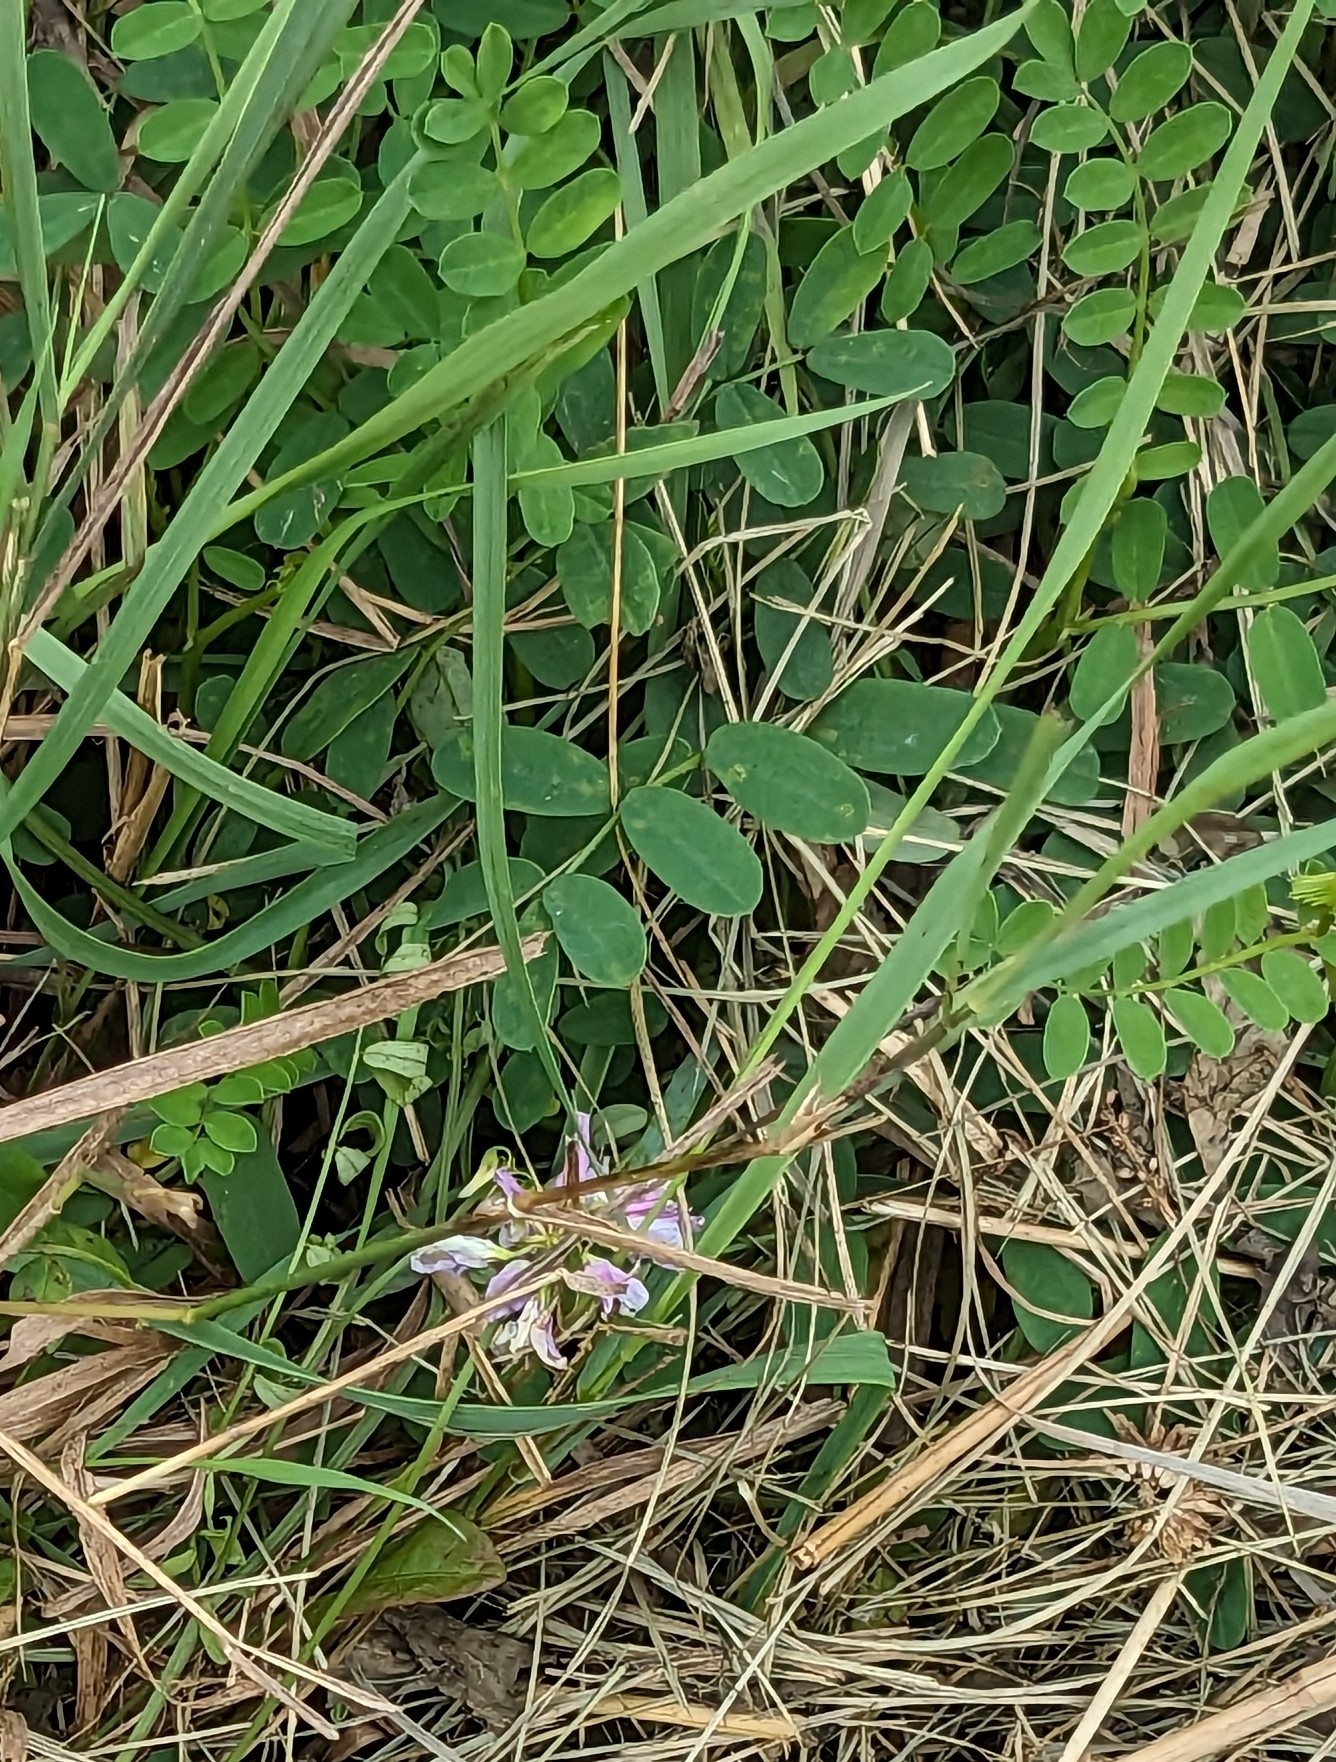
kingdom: Plantae
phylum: Tracheophyta
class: Magnoliopsida
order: Fabales
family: Fabaceae
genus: Coronilla
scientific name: Coronilla varia
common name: Crownvetch
